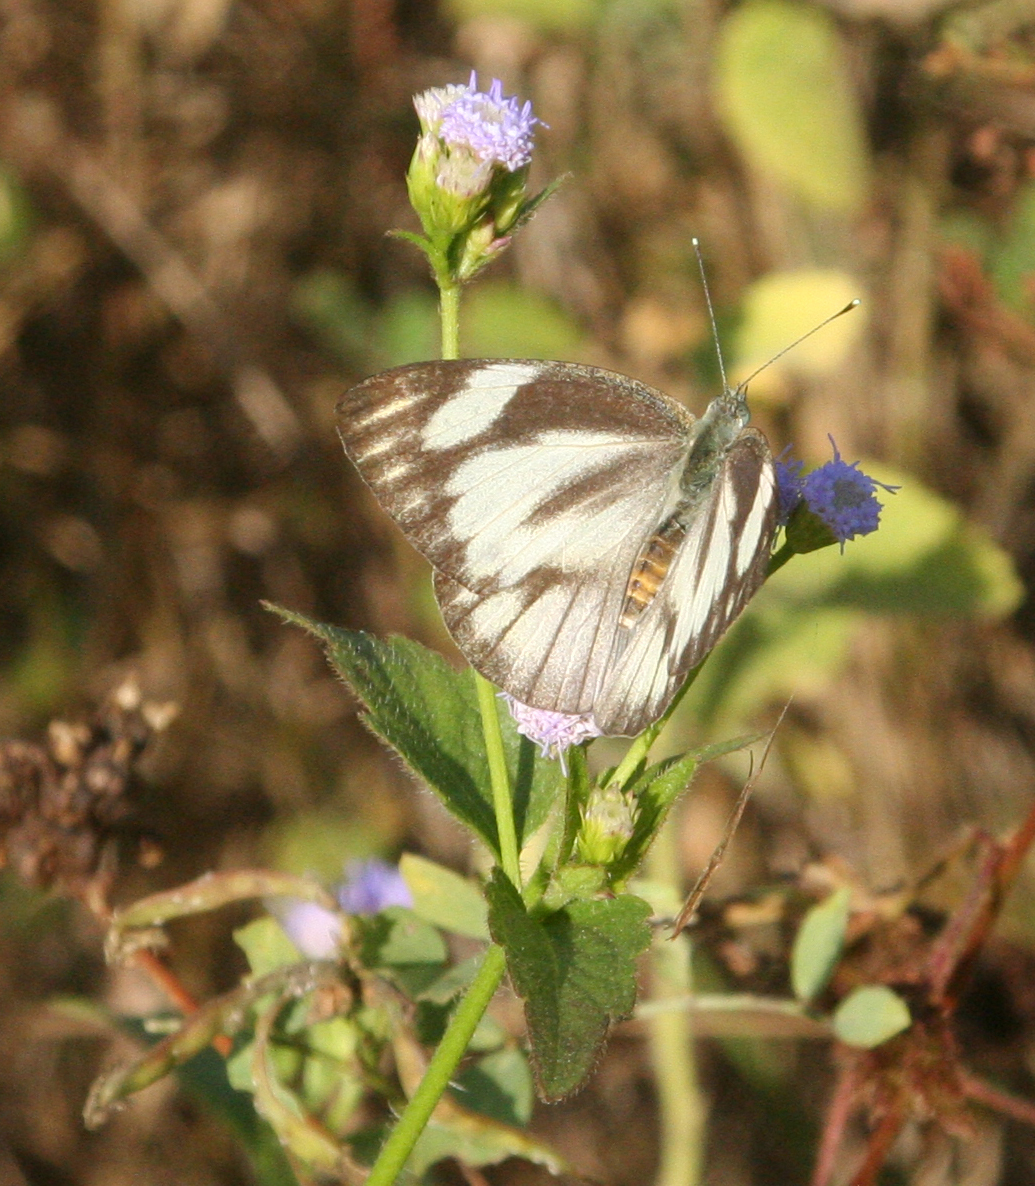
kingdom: Animalia
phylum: Arthropoda
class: Insecta
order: Lepidoptera
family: Pieridae
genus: Appias
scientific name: Appias libythea
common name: Striped albatross
